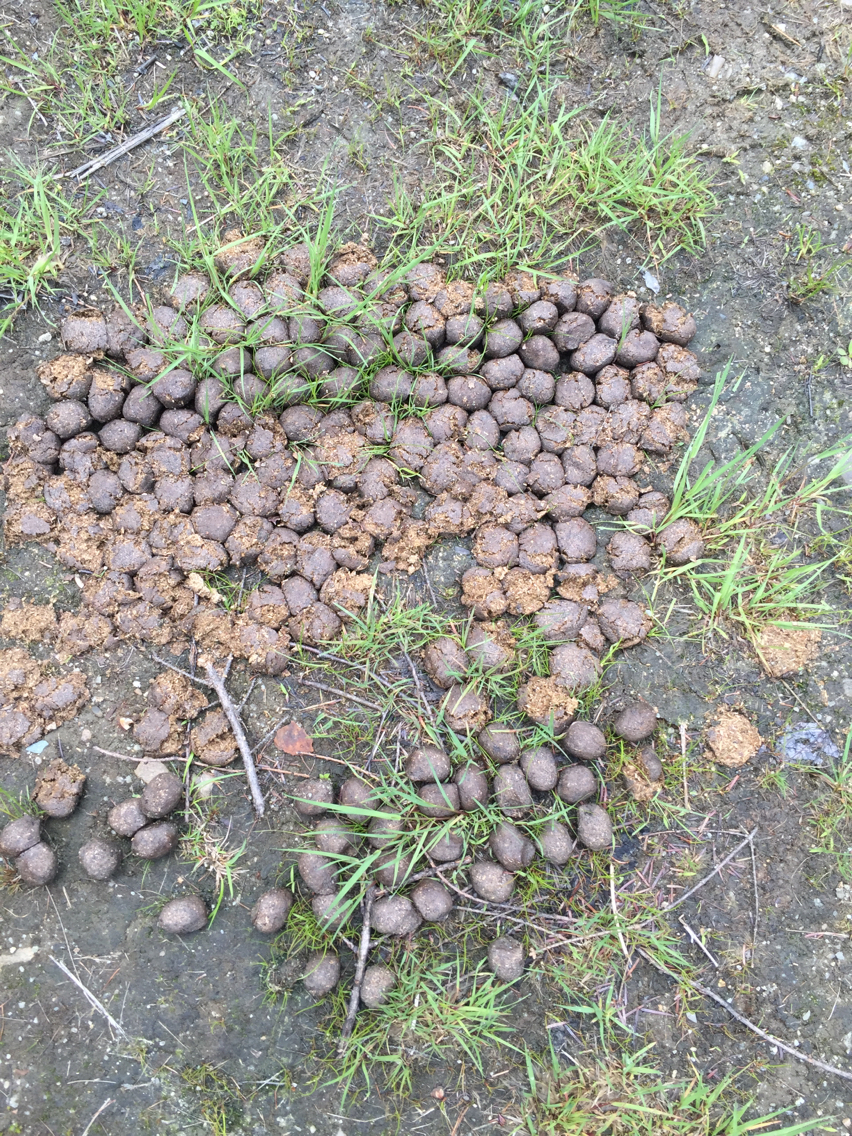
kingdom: Animalia
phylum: Chordata
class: Mammalia
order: Artiodactyla
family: Cervidae
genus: Alces
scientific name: Alces alces
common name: Moose
